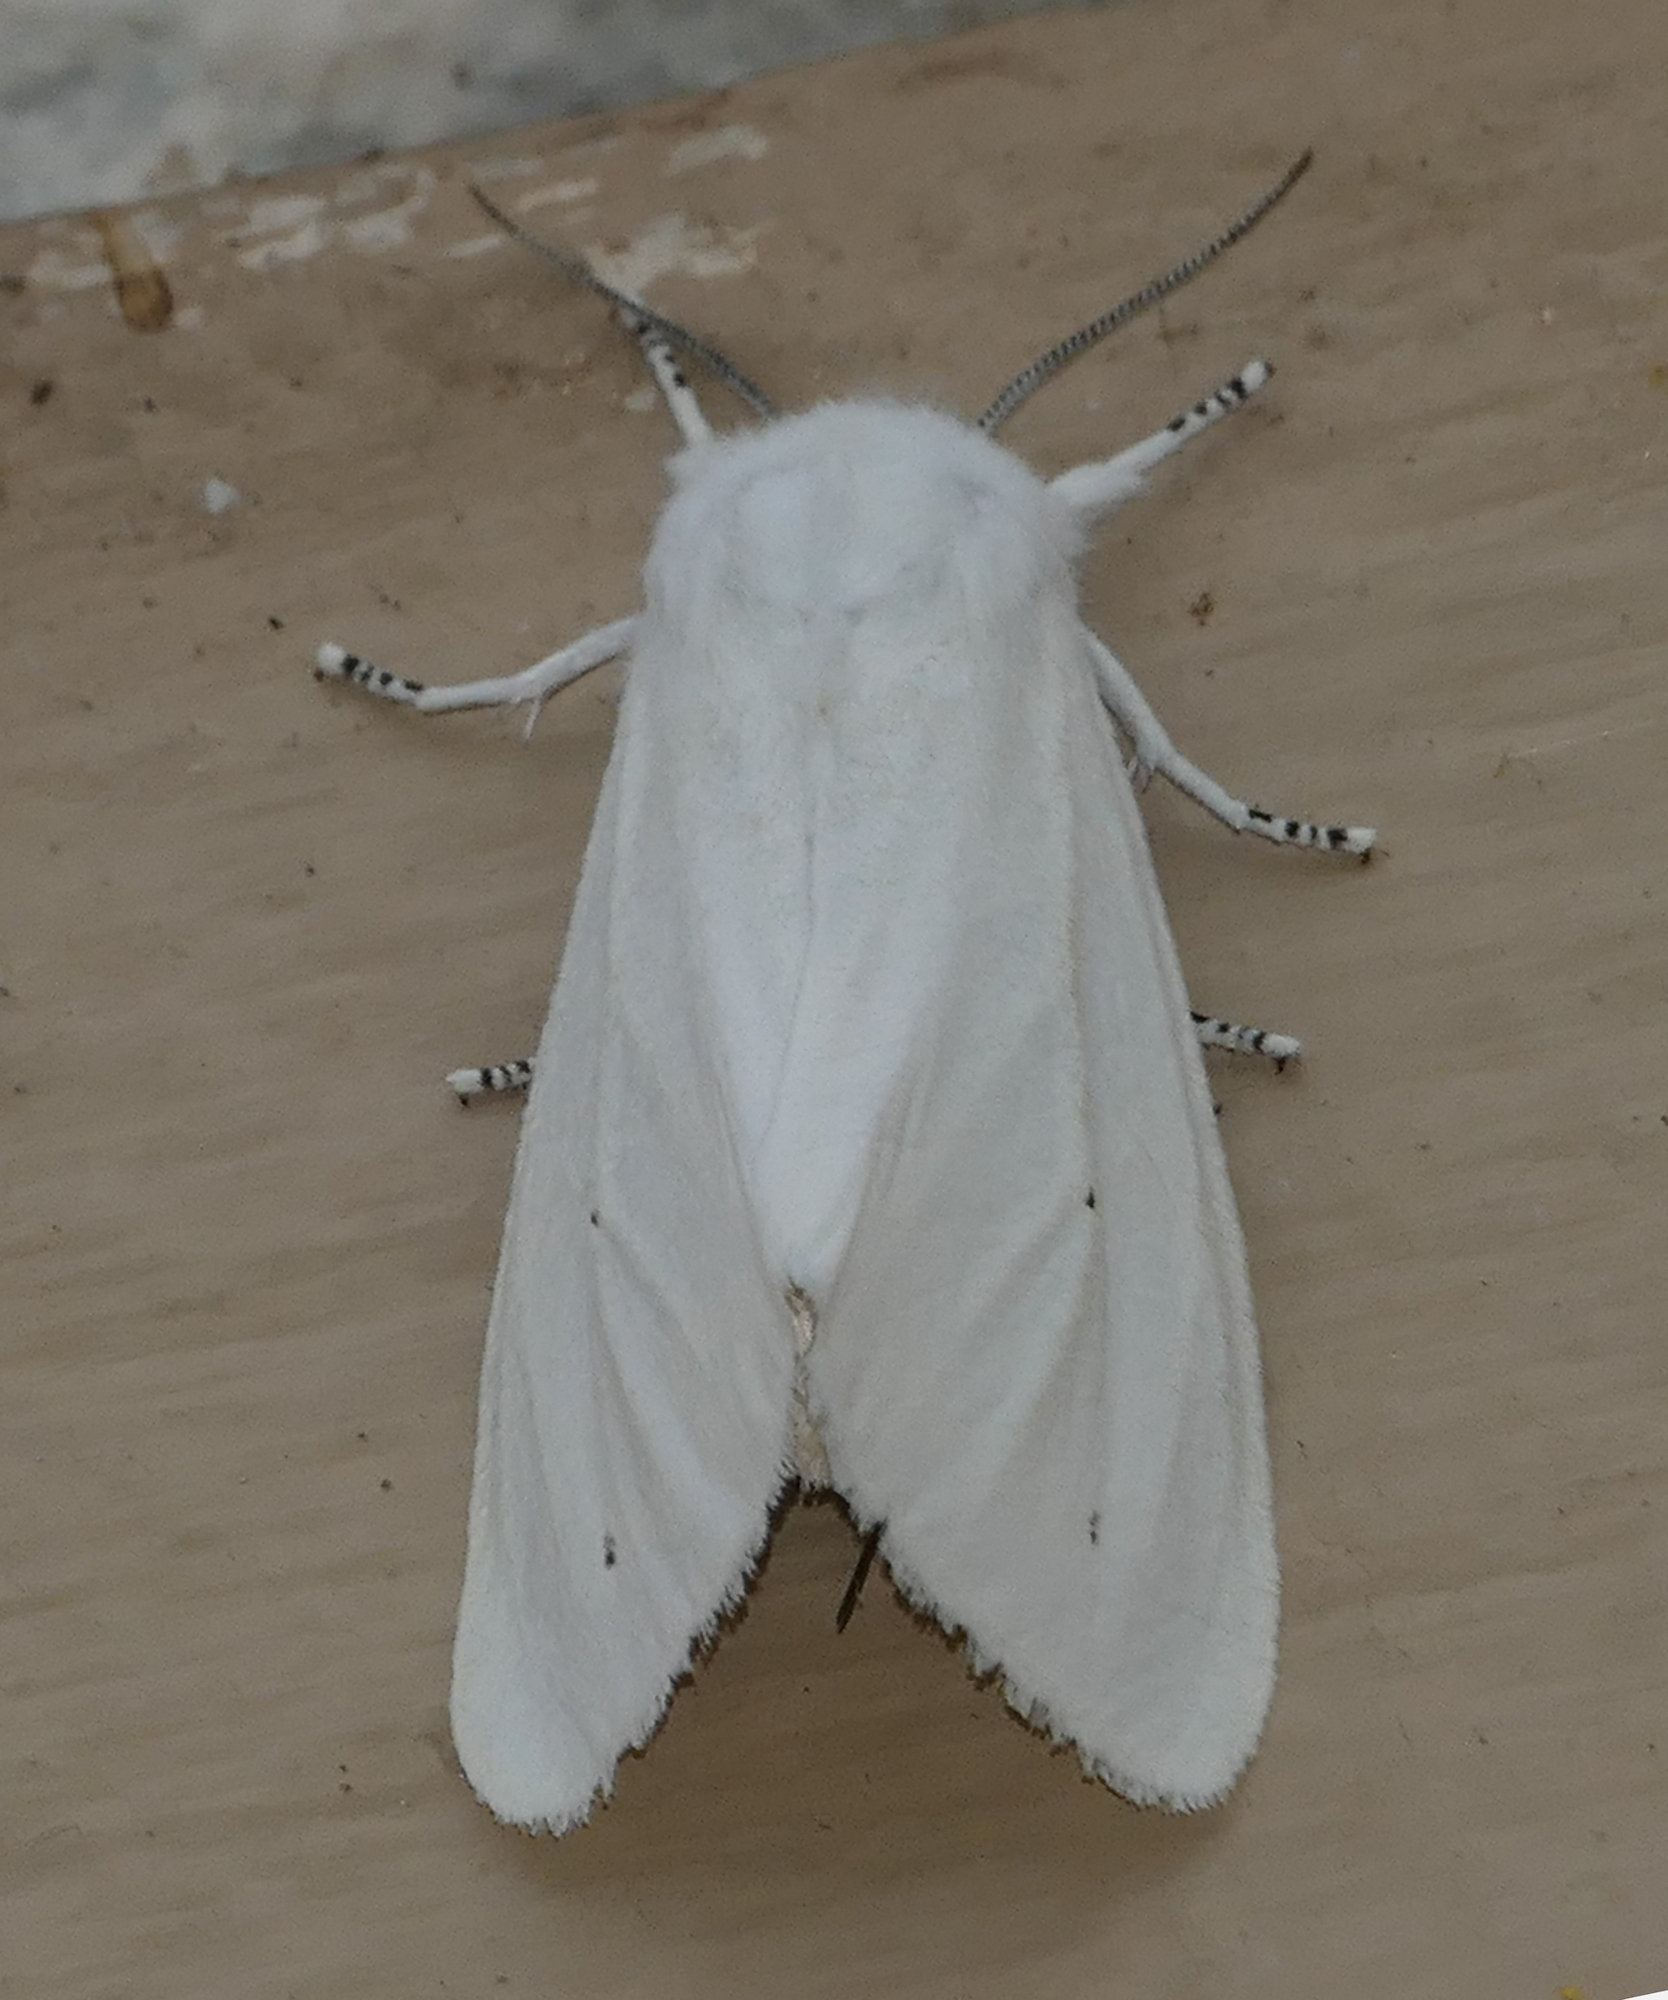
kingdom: Animalia
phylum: Arthropoda
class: Insecta
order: Lepidoptera
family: Erebidae
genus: Spilosoma
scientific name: Spilosoma virginica
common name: Virginia tiger moth
